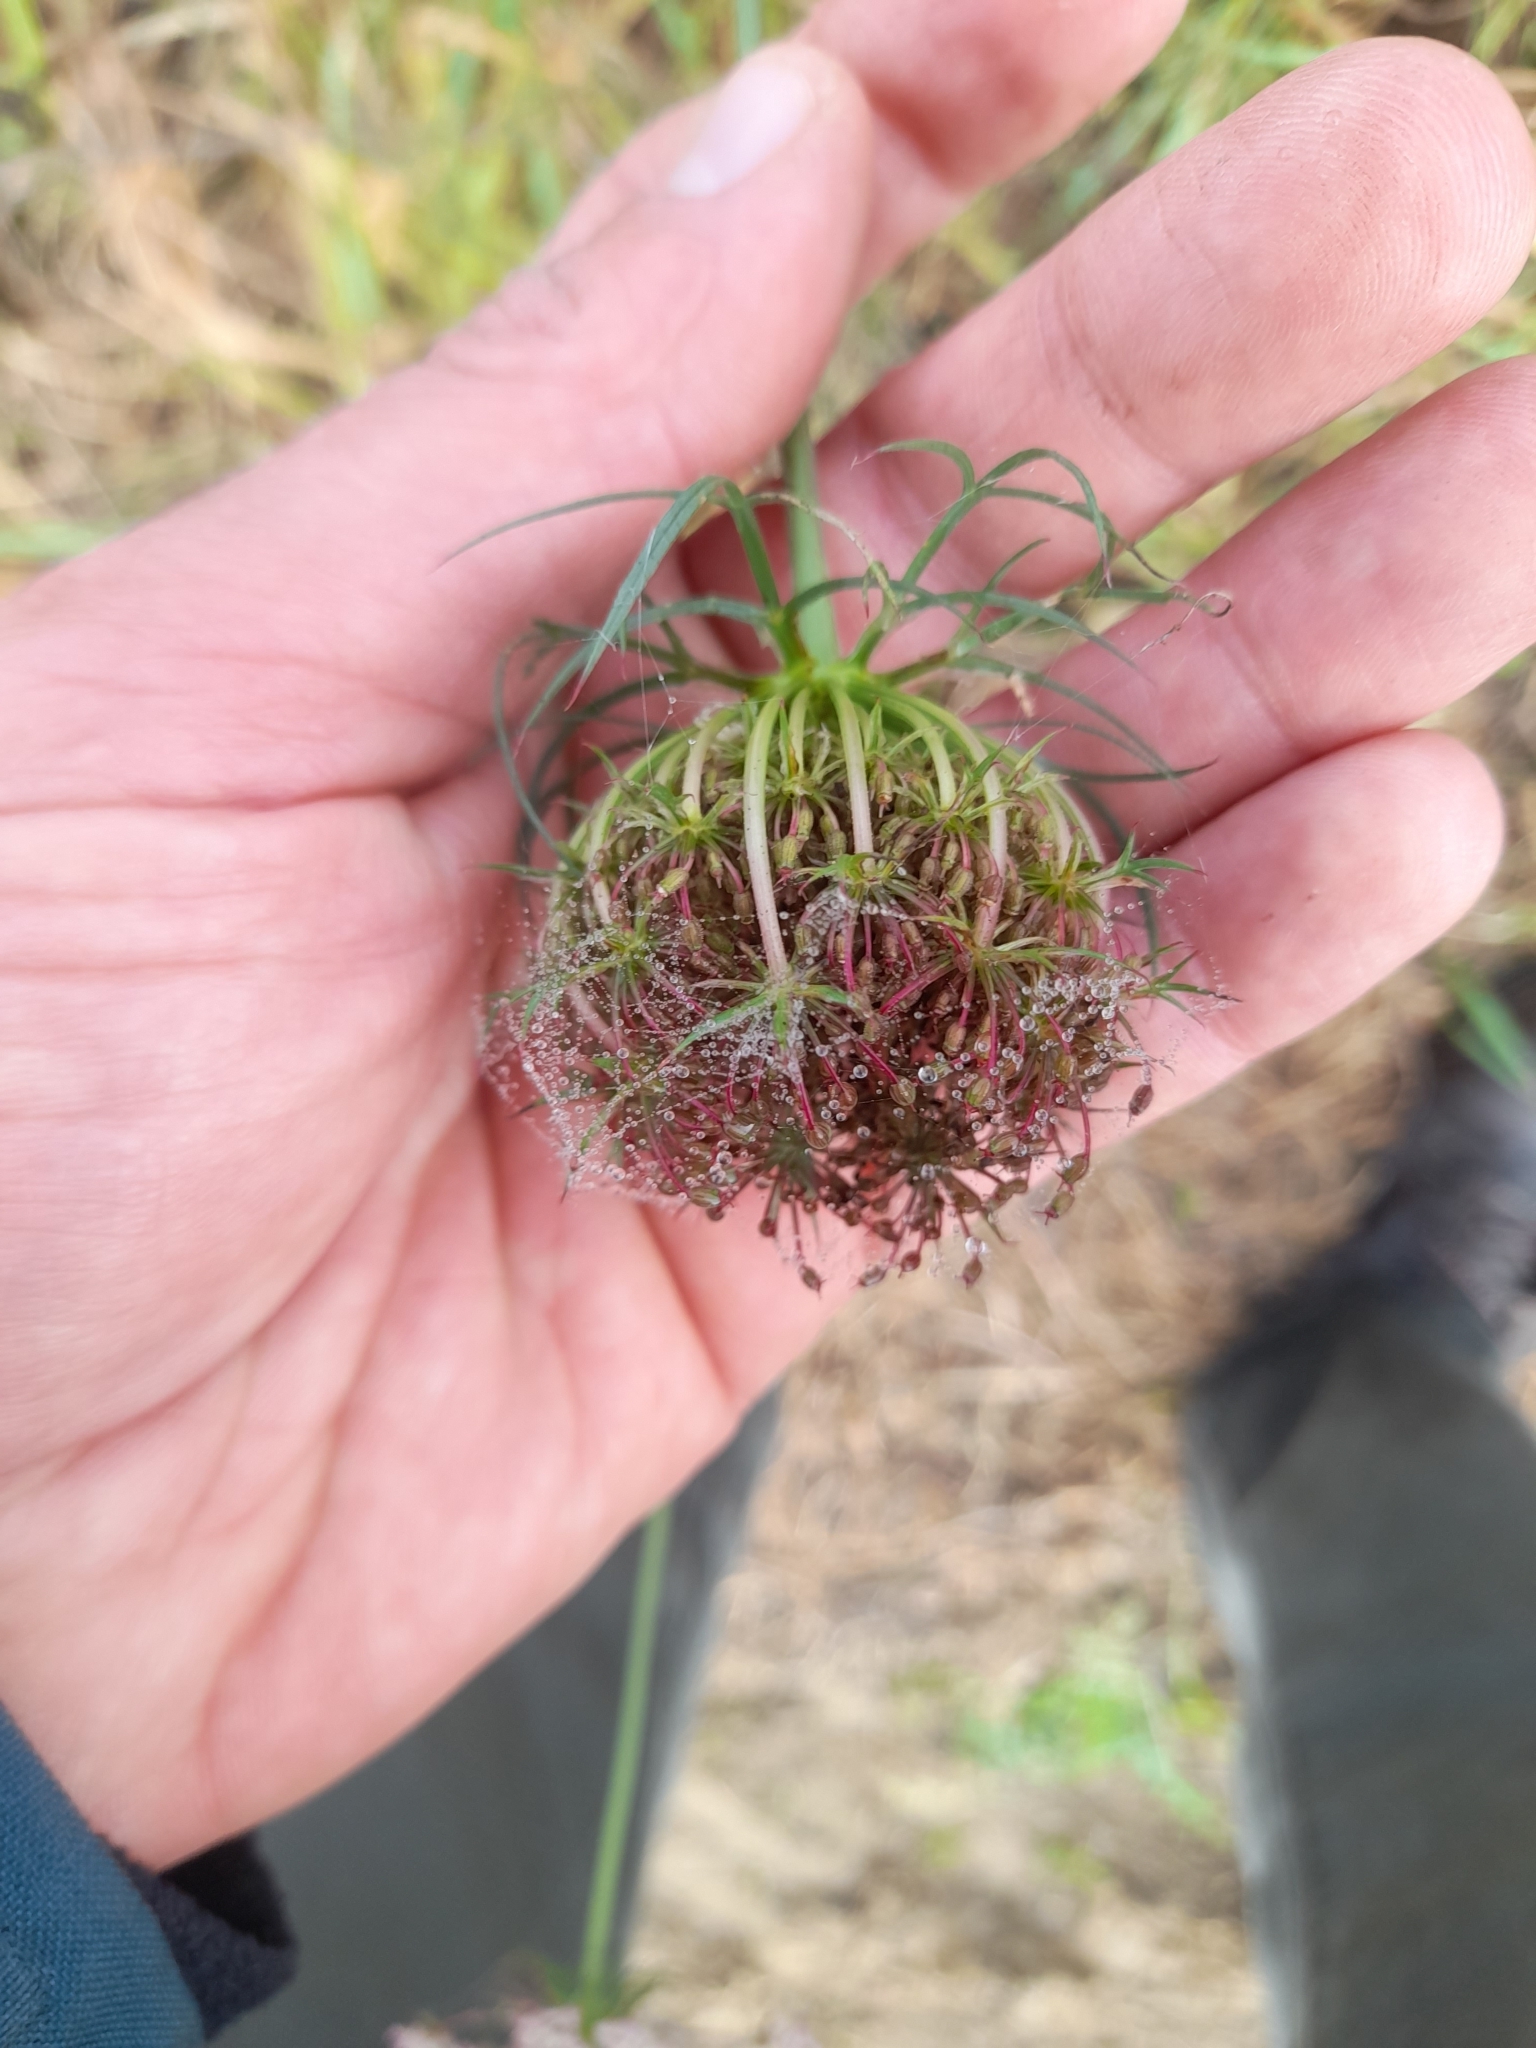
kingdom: Plantae
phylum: Tracheophyta
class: Magnoliopsida
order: Apiales
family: Apiaceae
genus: Daucus
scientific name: Daucus carota
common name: Wild carrot
